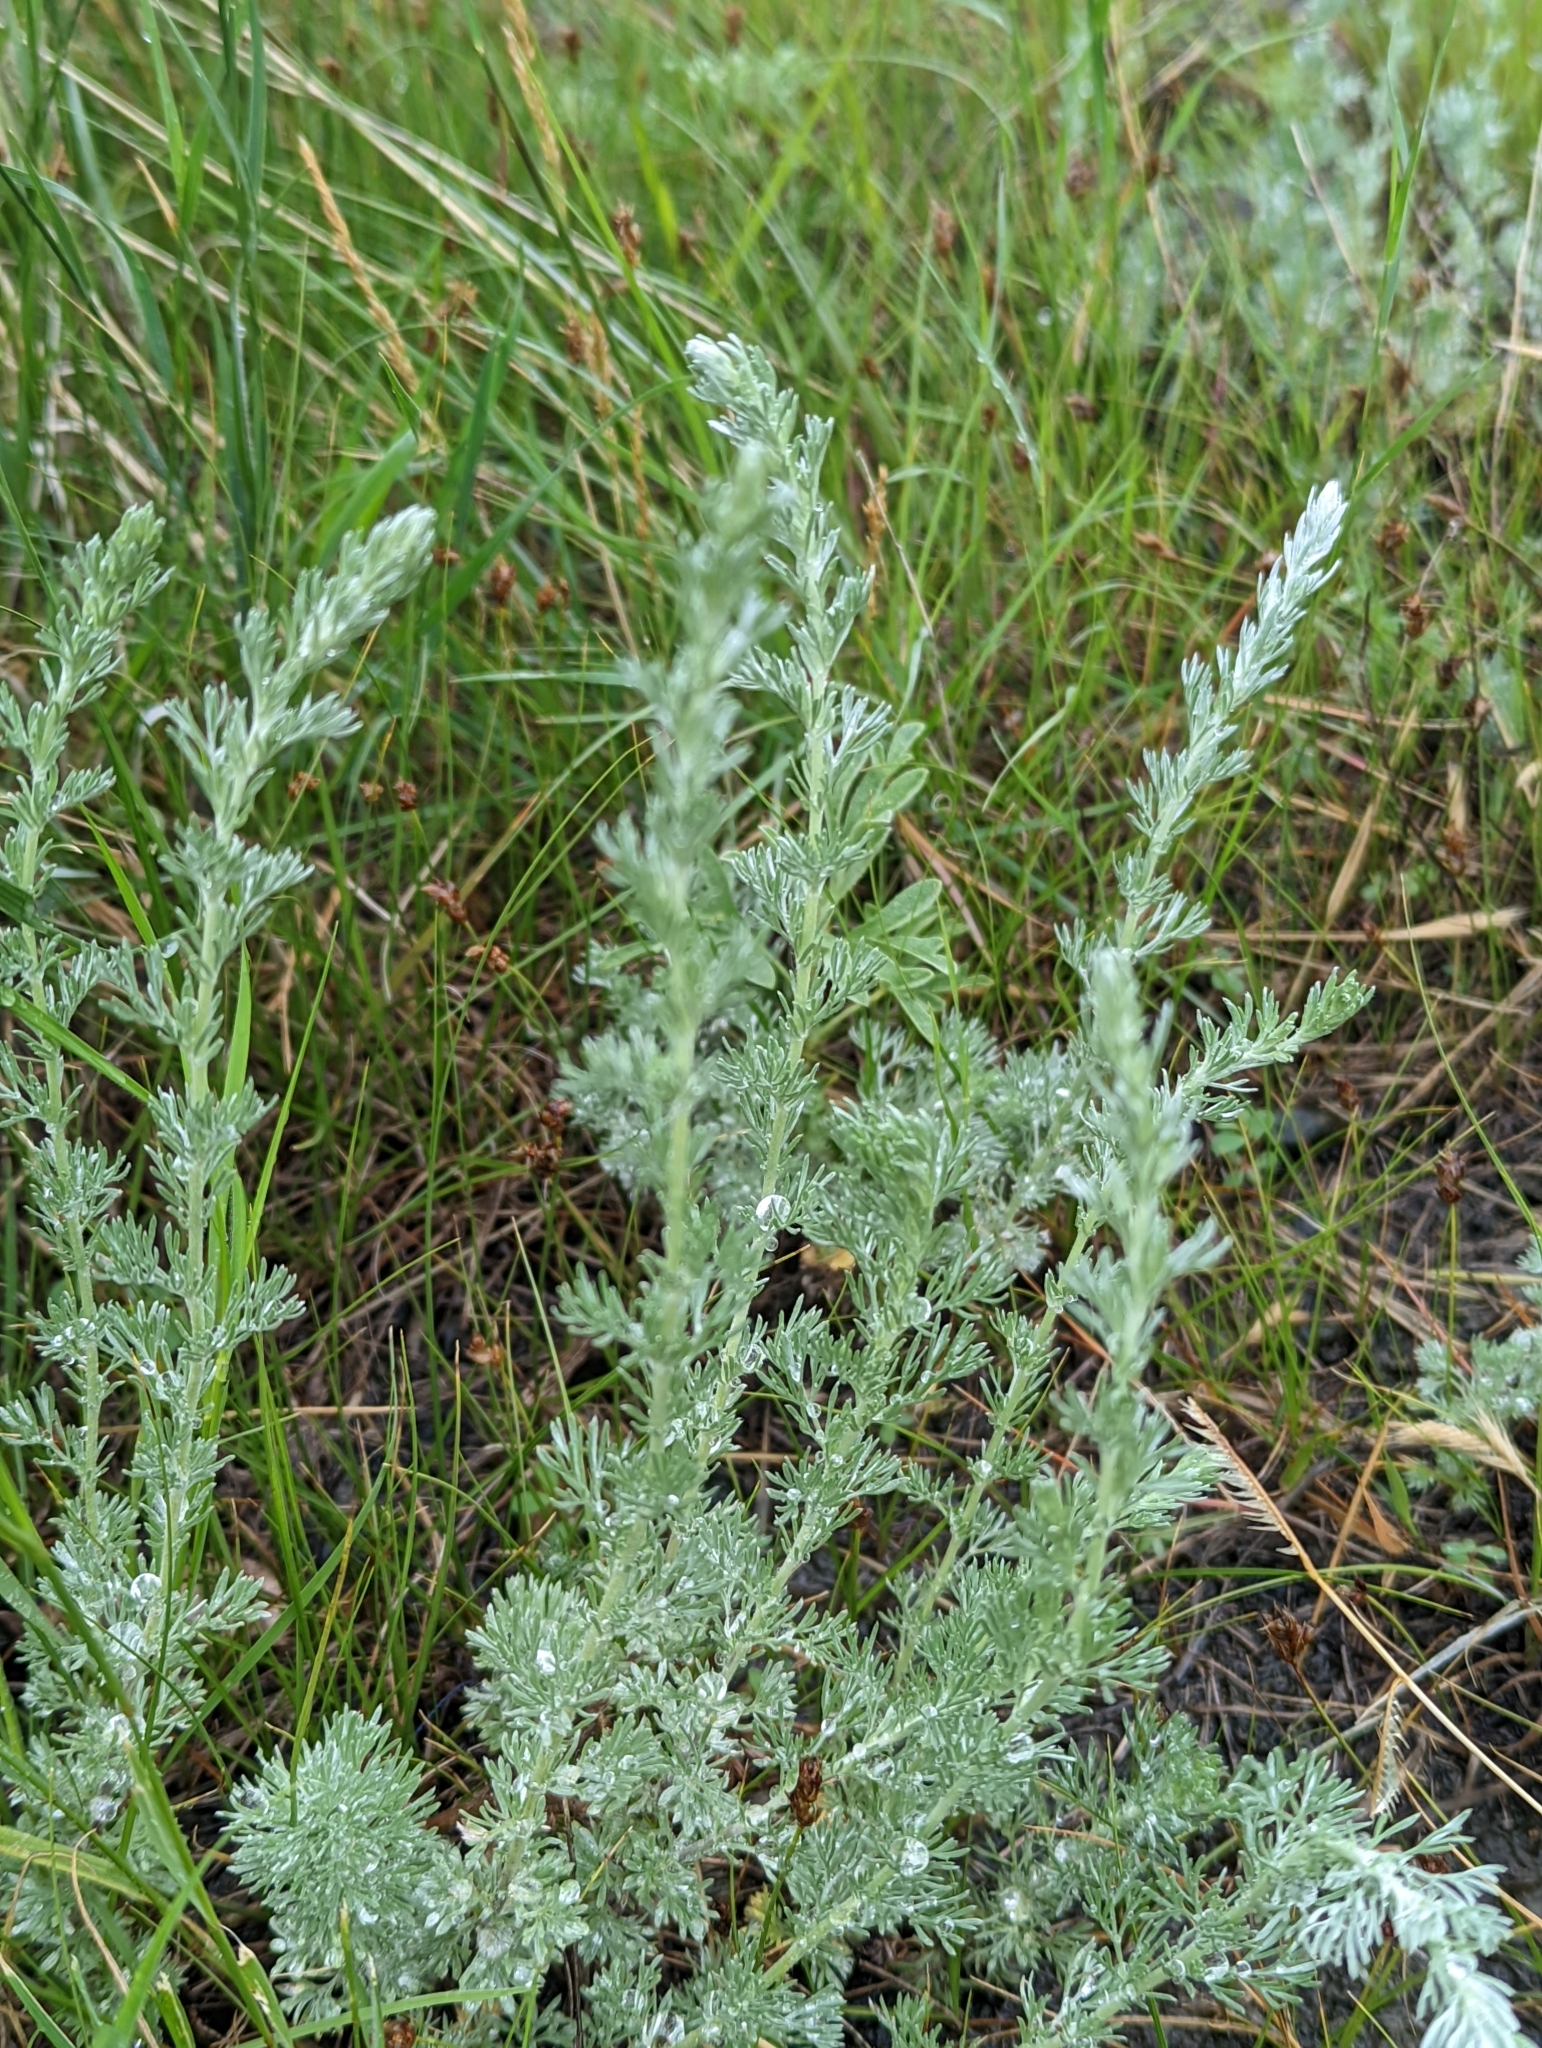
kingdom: Plantae
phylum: Tracheophyta
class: Magnoliopsida
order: Asterales
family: Asteraceae
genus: Artemisia
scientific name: Artemisia frigida
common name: Prairie sagewort
